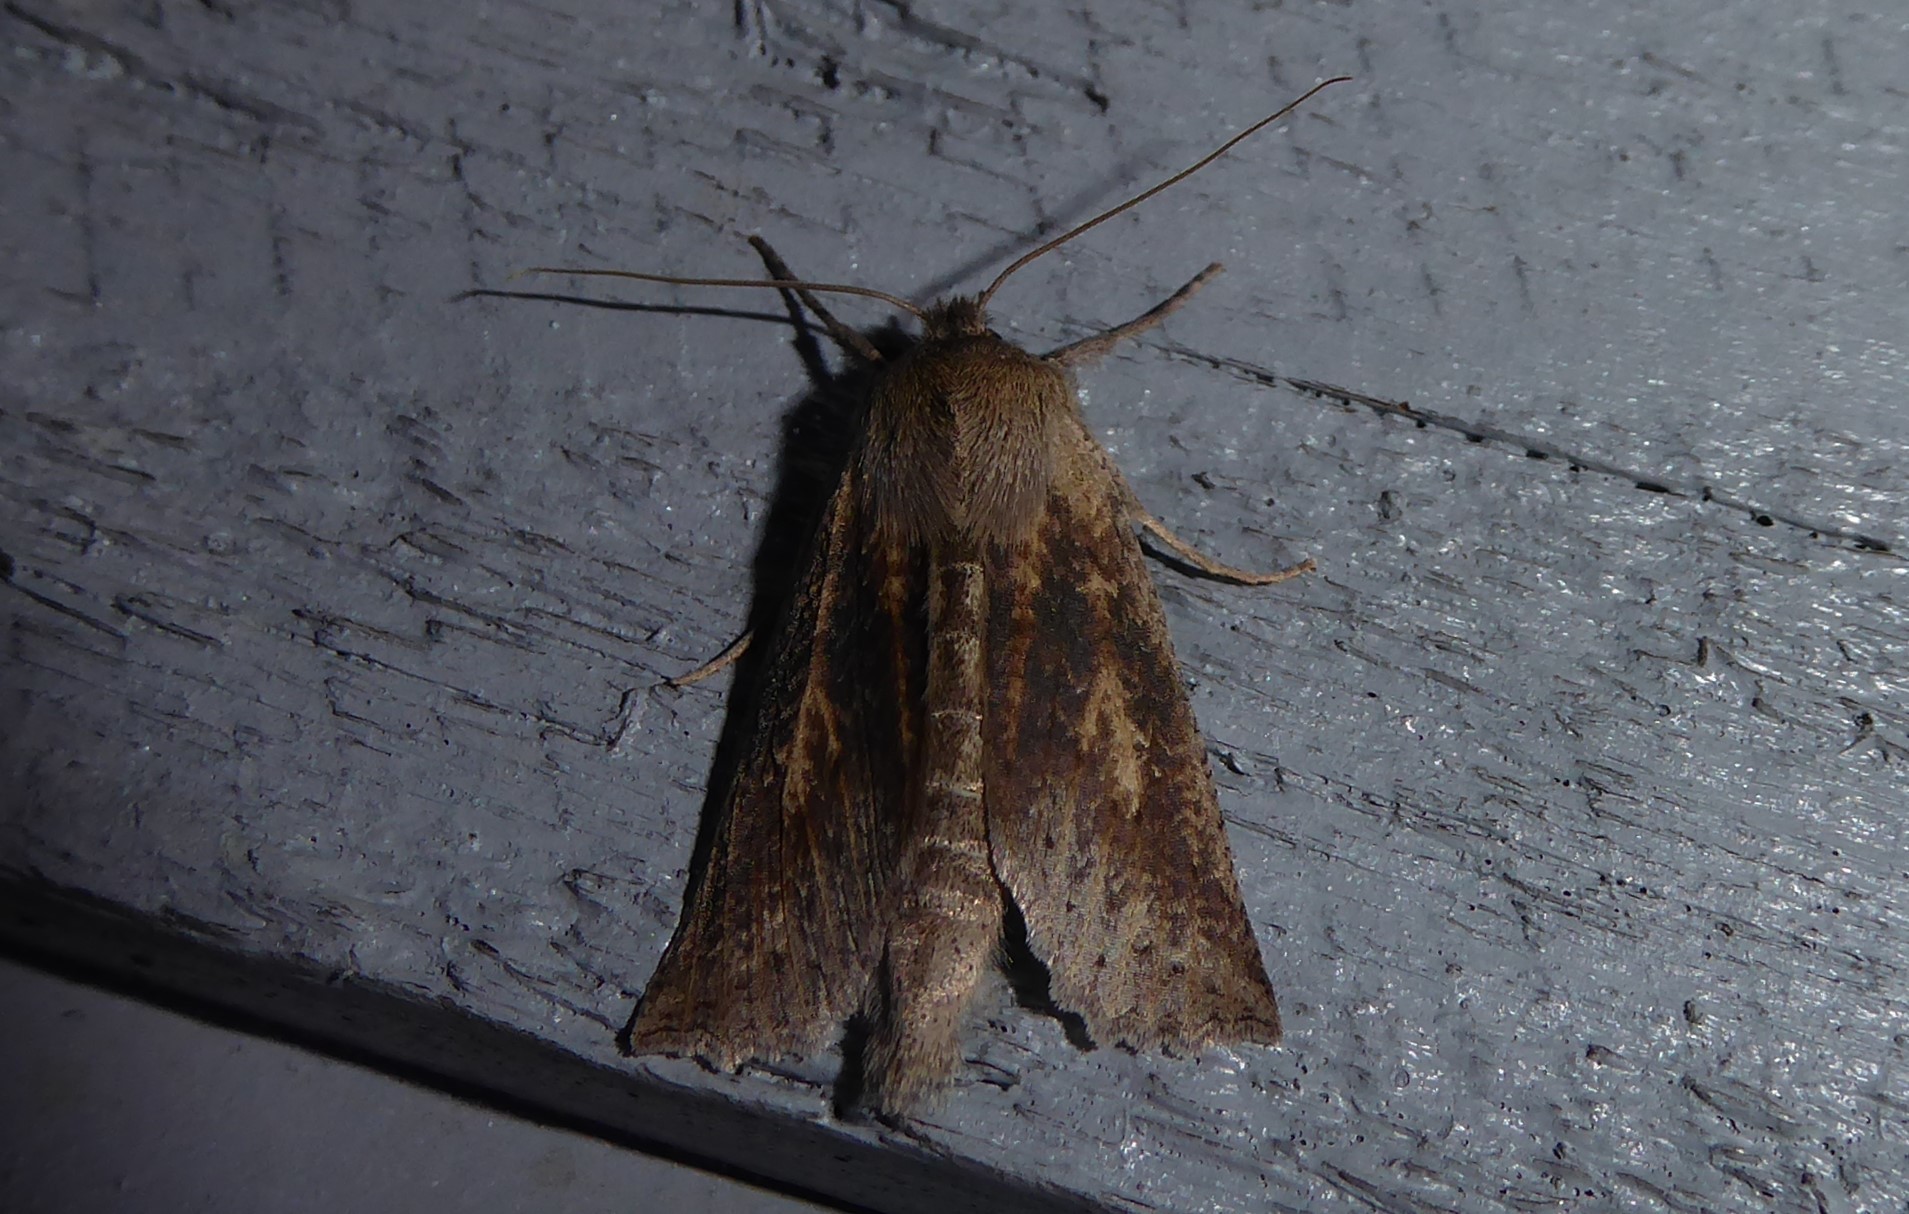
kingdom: Animalia
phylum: Arthropoda
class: Insecta
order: Lepidoptera
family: Geometridae
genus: Declana
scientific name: Declana leptomera
